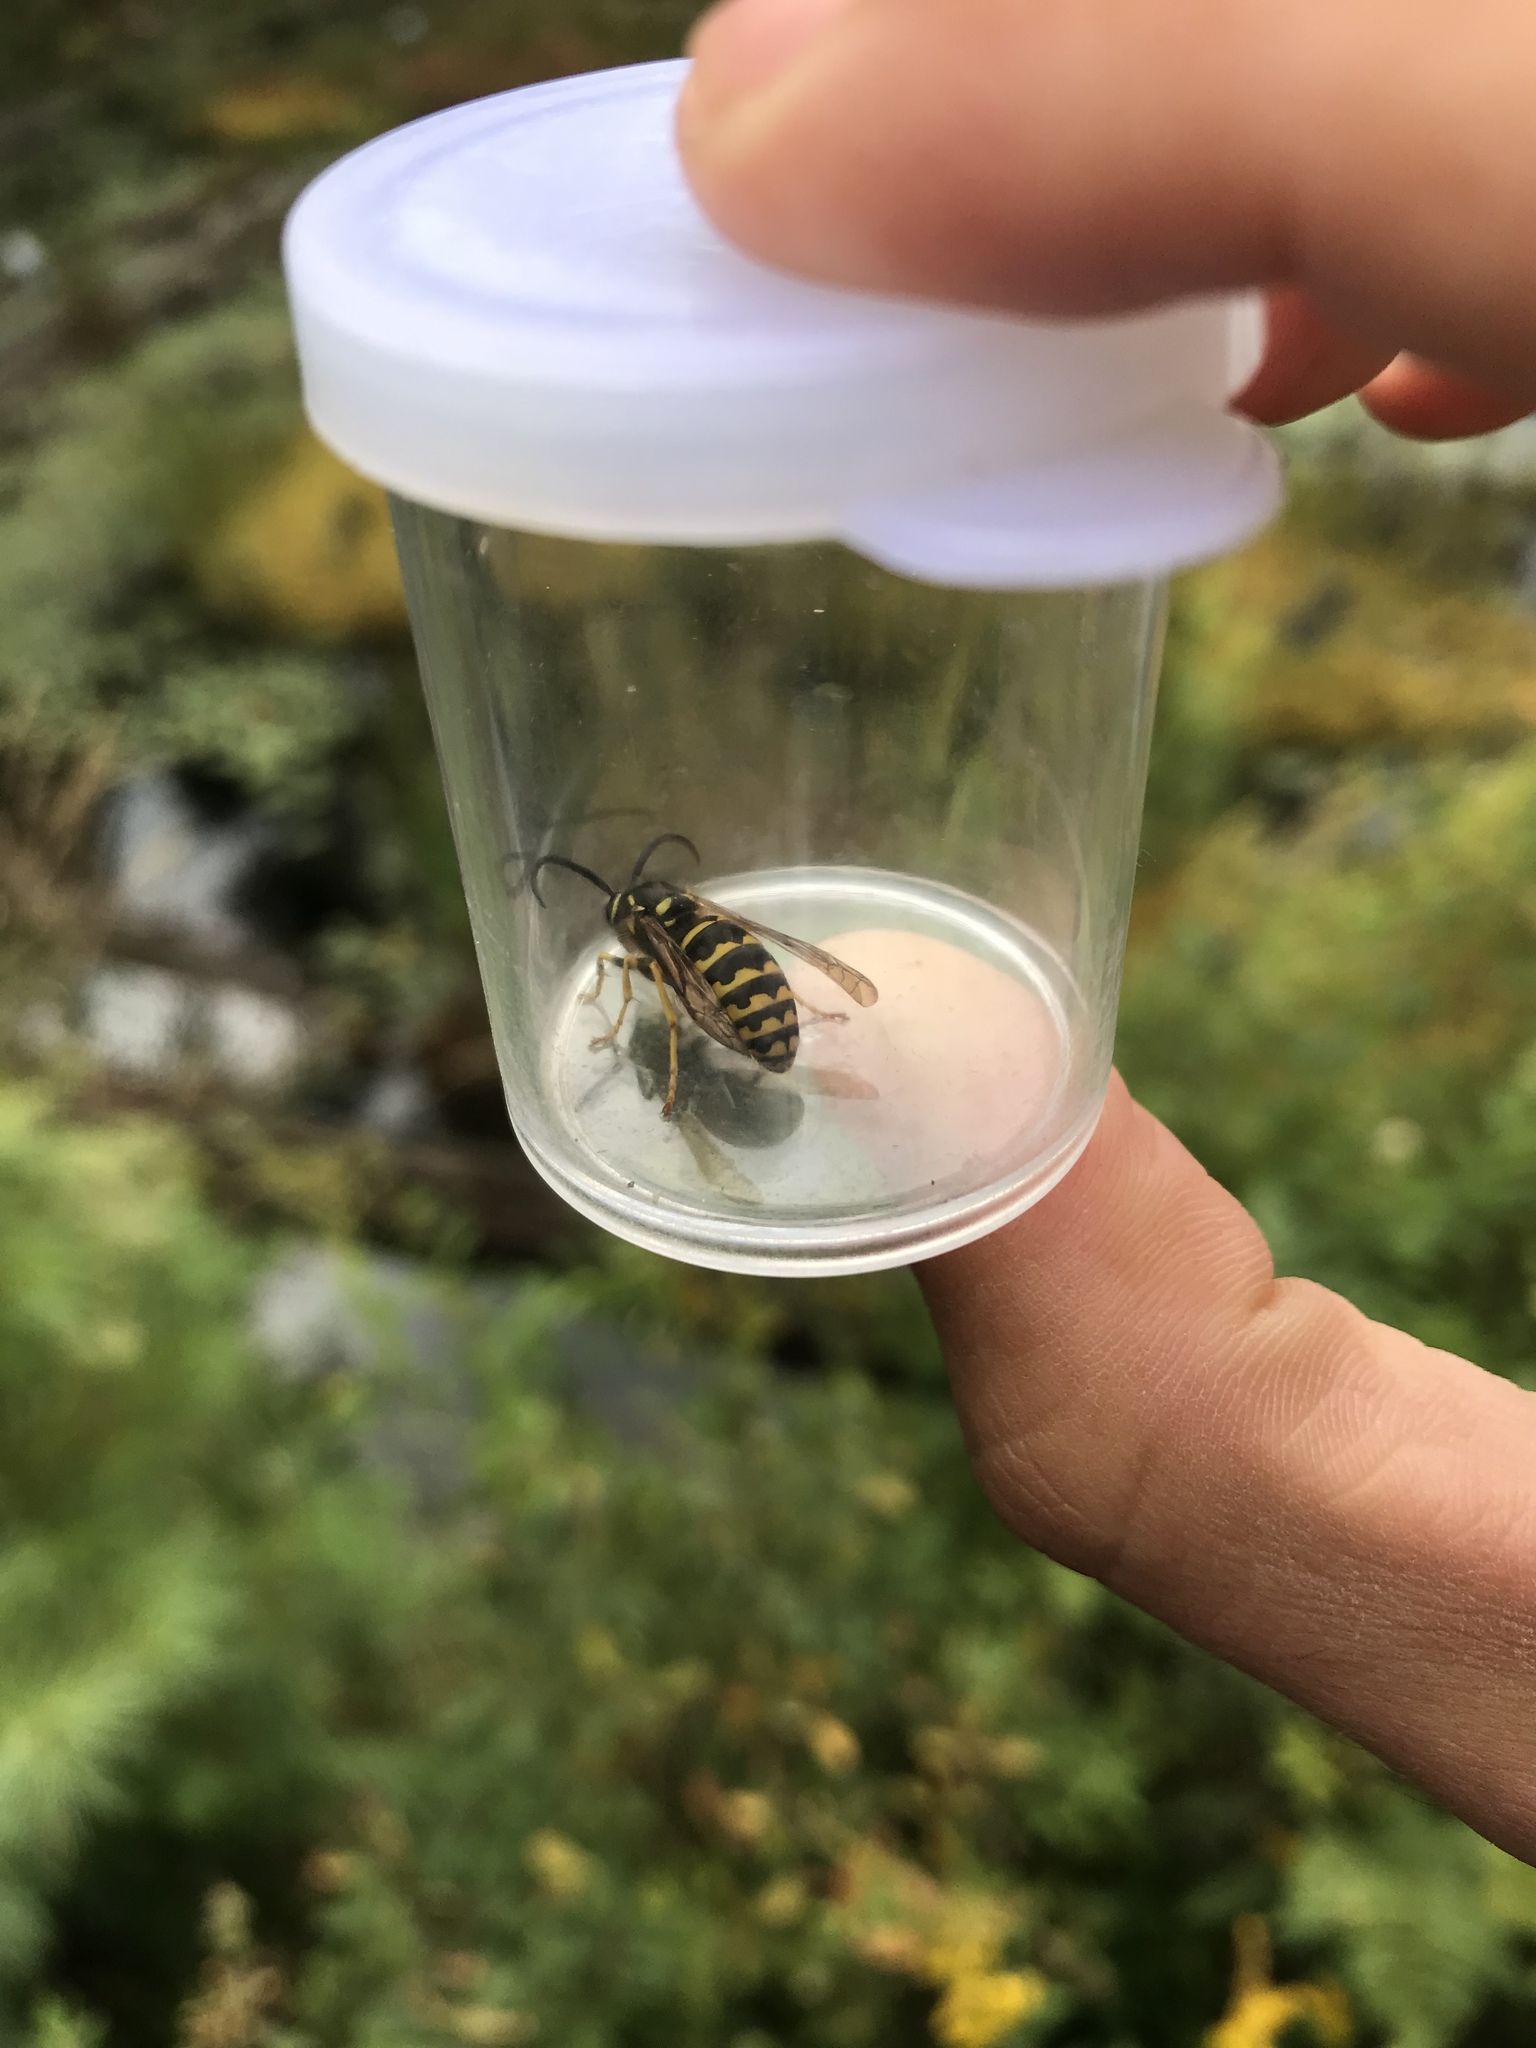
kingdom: Animalia
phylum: Arthropoda
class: Insecta
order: Hymenoptera
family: Vespidae
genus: Dolichovespula
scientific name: Dolichovespula arenaria
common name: Aerial yellowjacket
